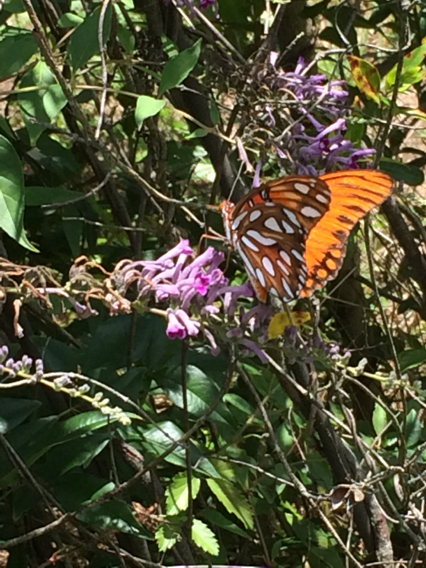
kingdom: Plantae
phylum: Tracheophyta
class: Magnoliopsida
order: Lamiales
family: Scrophulariaceae
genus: Buddleja
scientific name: Buddleja lindleyana
